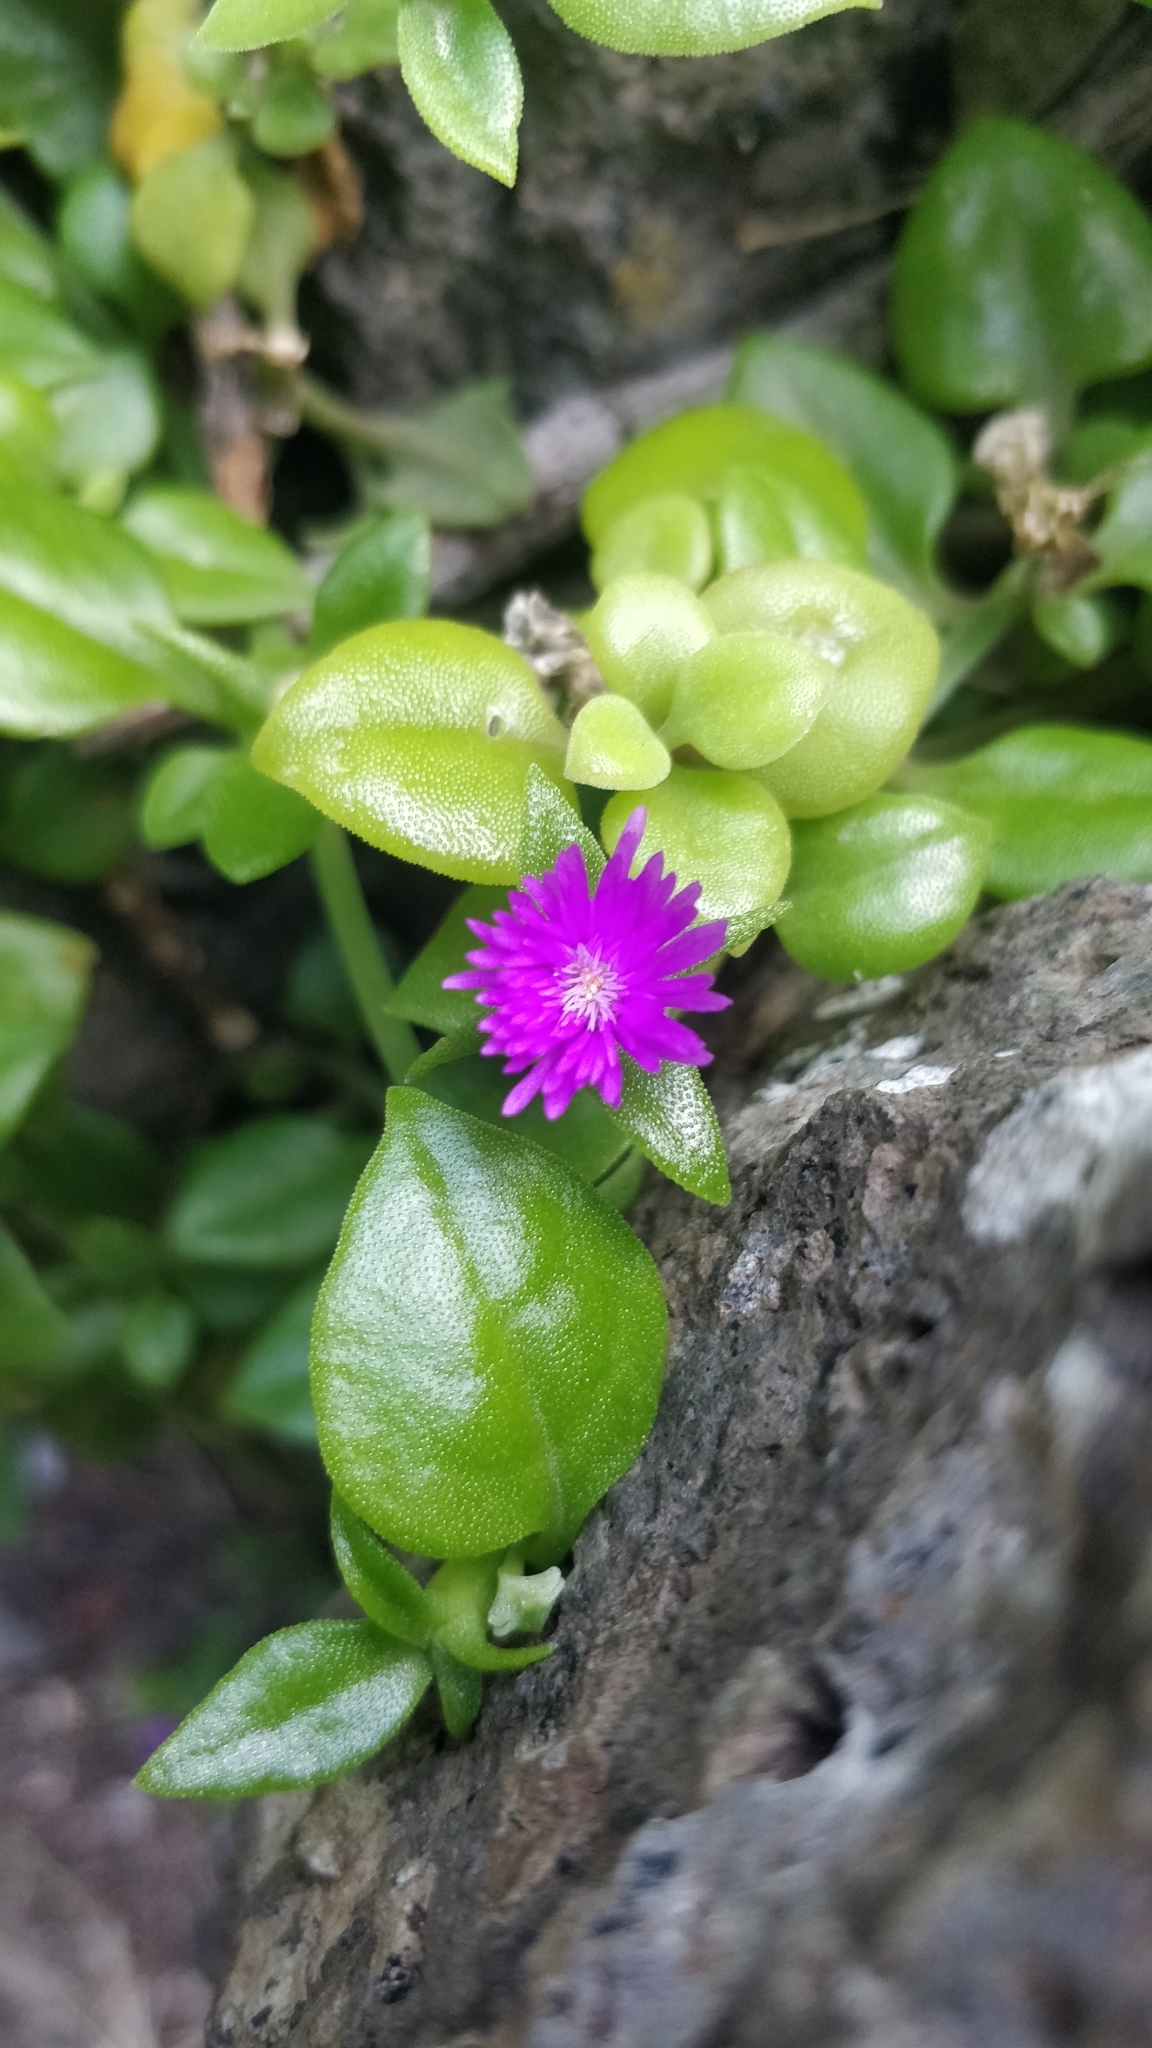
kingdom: Plantae
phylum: Tracheophyta
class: Magnoliopsida
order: Caryophyllales
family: Aizoaceae
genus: Mesembryanthemum
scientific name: Mesembryanthemum cordifolium
